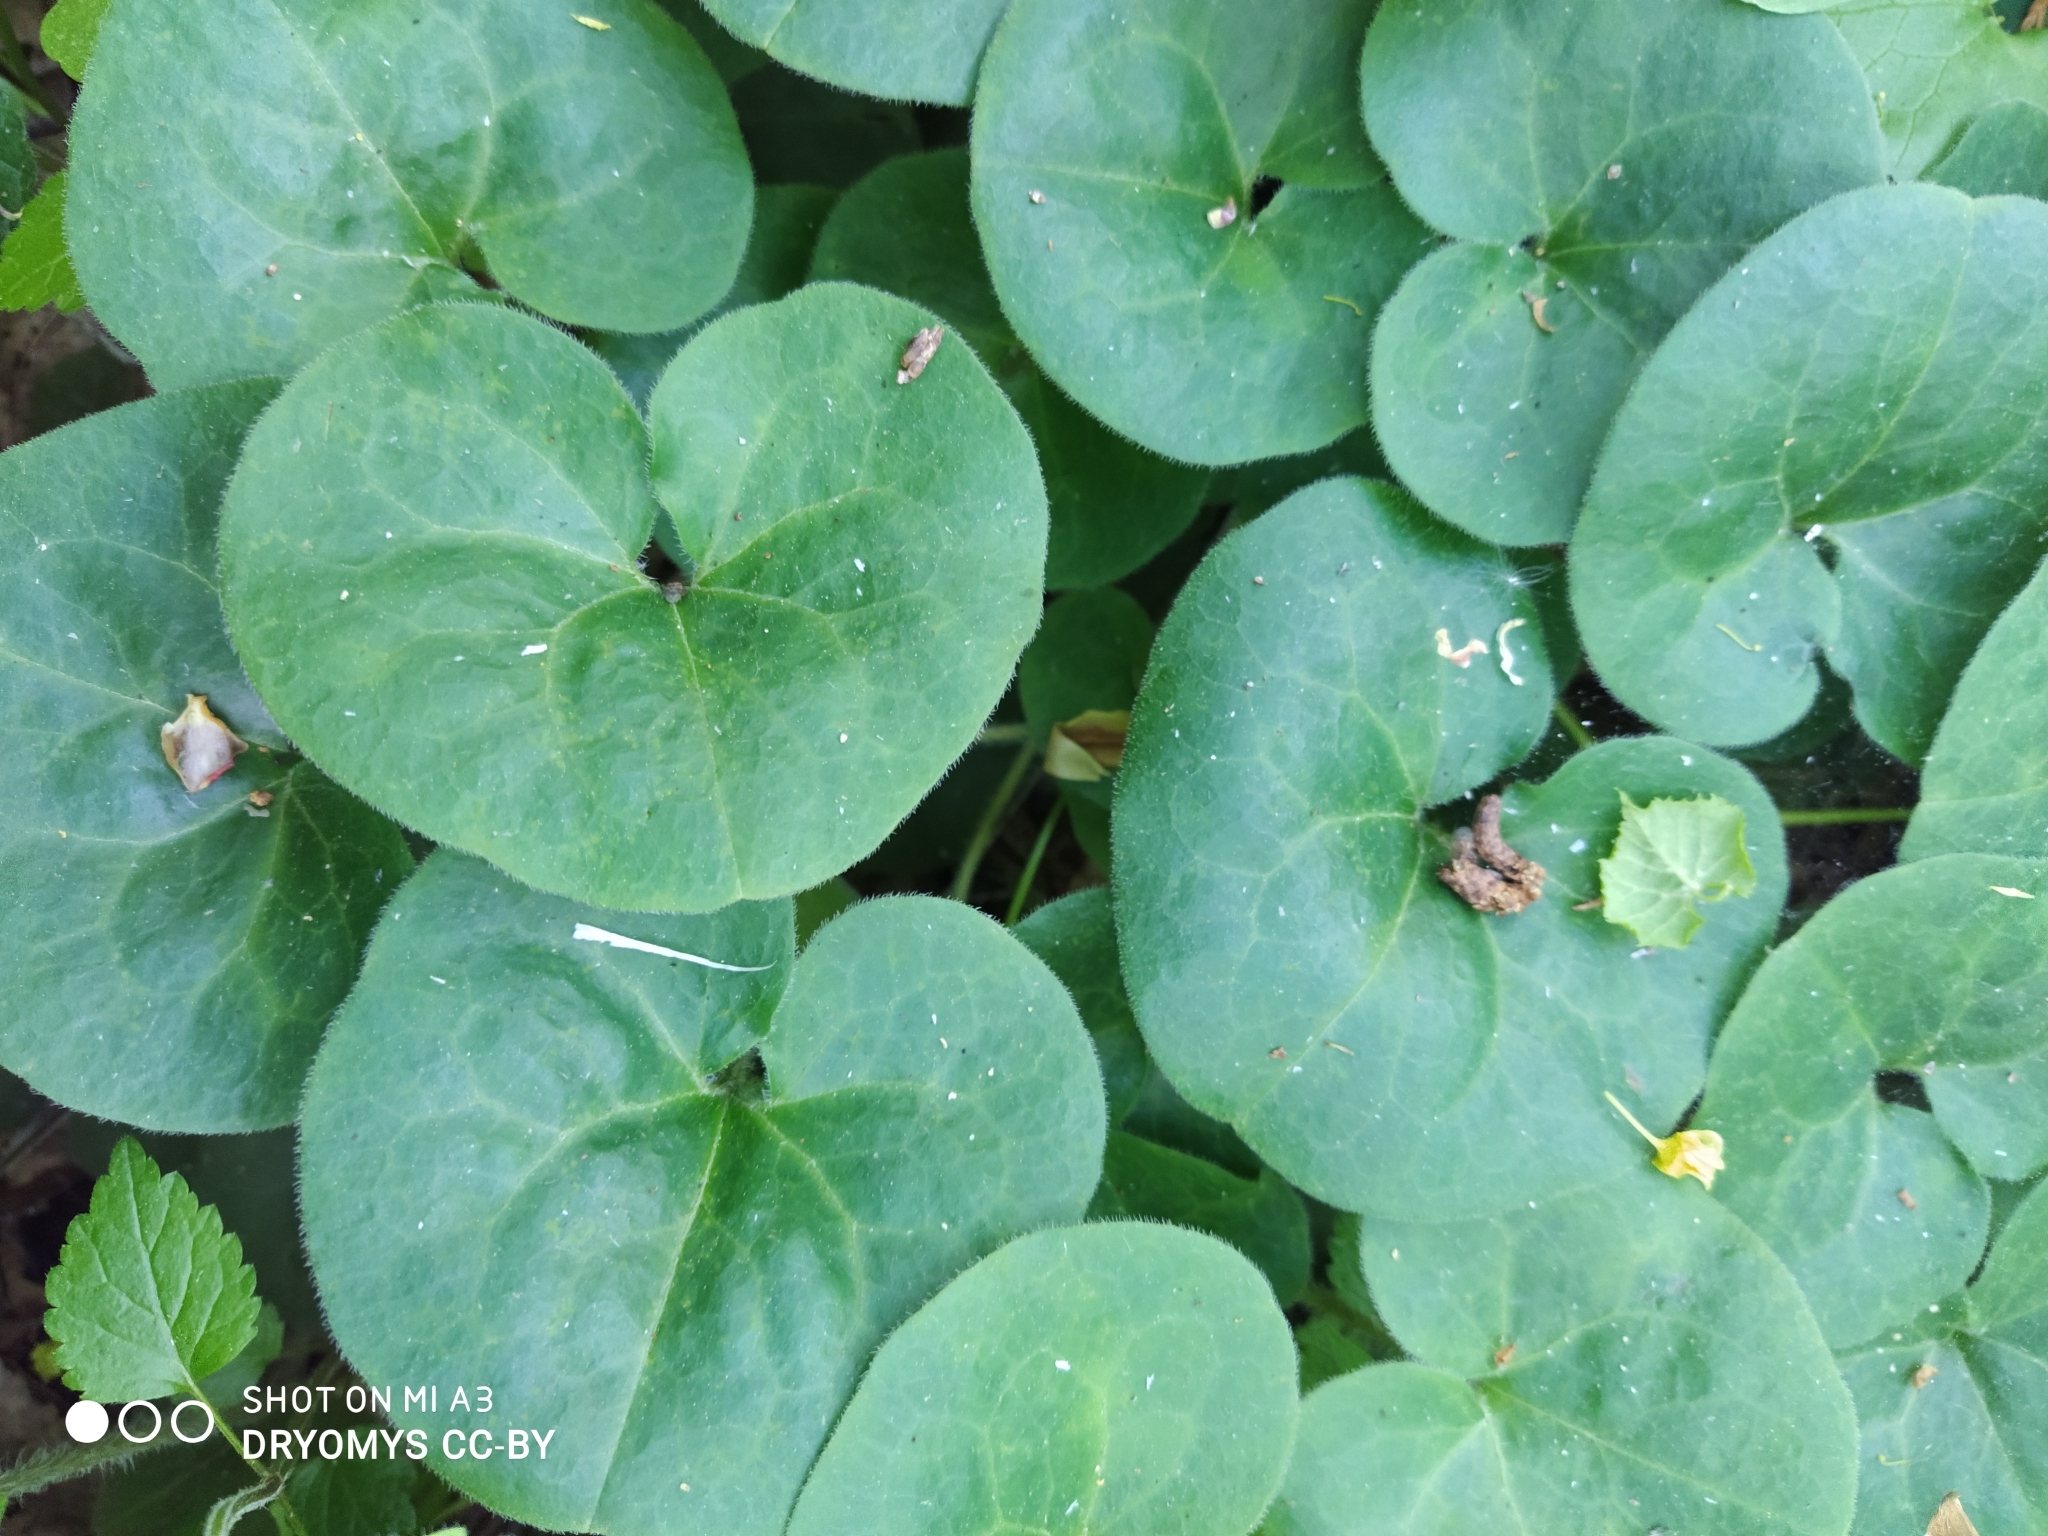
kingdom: Plantae
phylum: Tracheophyta
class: Magnoliopsida
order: Piperales
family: Aristolochiaceae
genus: Asarum
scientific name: Asarum europaeum
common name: Asarabacca
